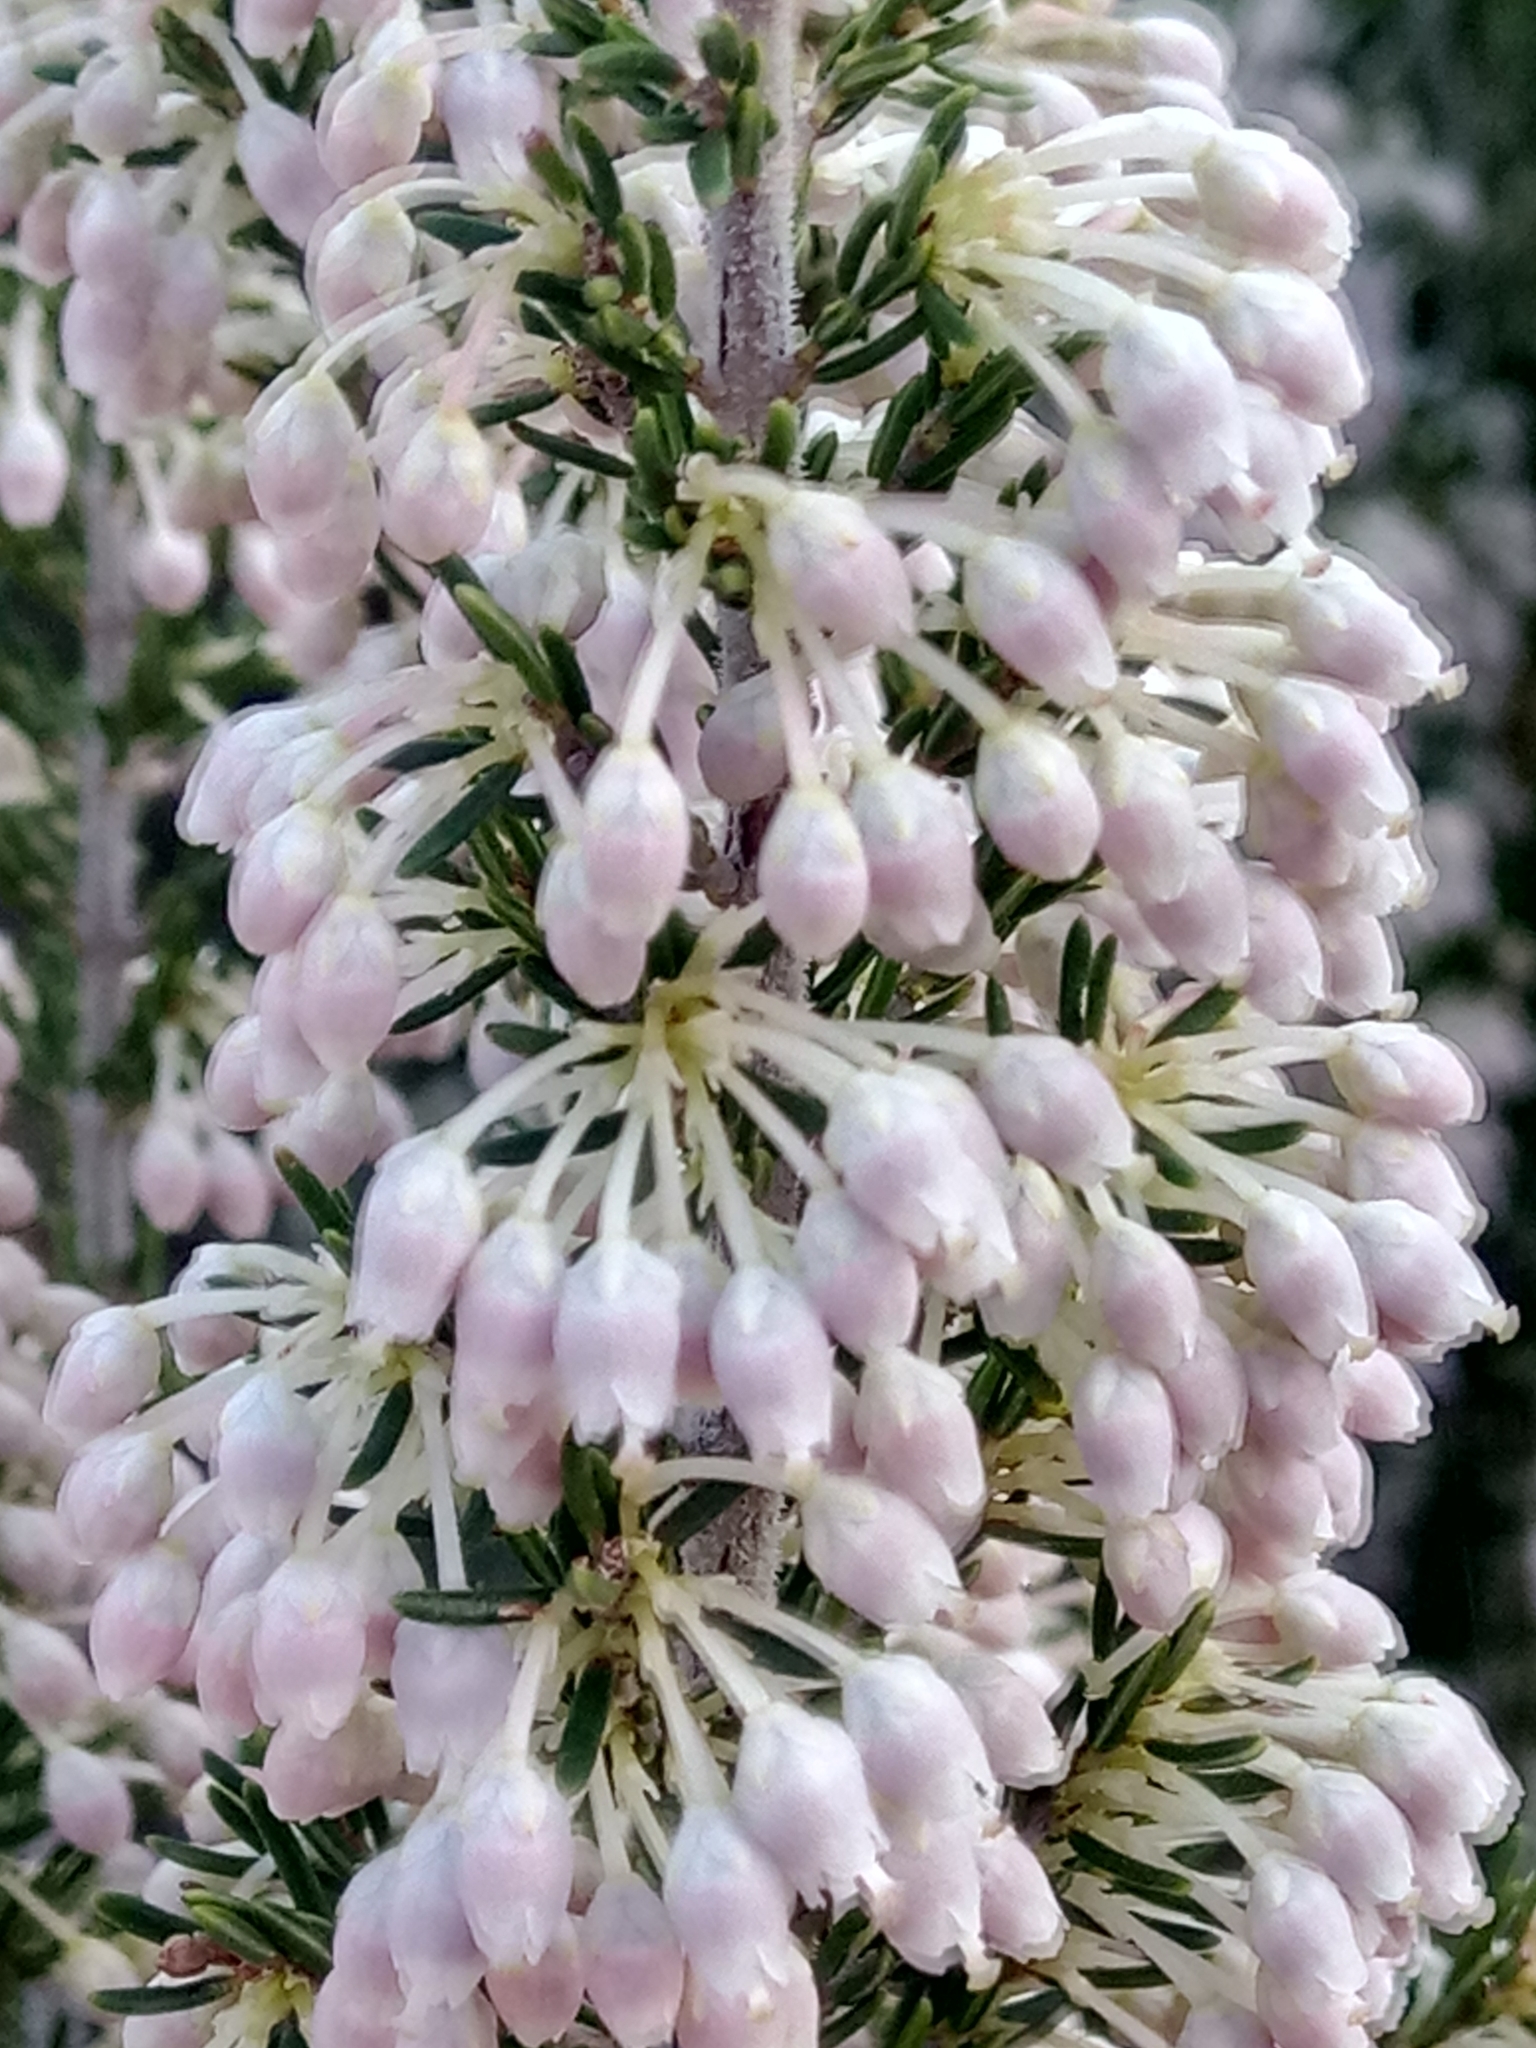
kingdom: Plantae
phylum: Tracheophyta
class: Magnoliopsida
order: Ericales
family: Ericaceae
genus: Erica
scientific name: Erica arborea
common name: Tree heath
